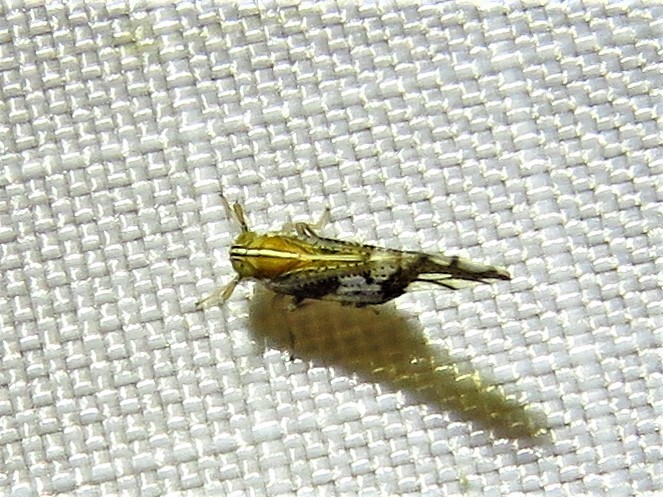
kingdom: Animalia
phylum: Arthropoda
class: Insecta
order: Hemiptera
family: Delphacidae
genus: Liburniella
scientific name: Liburniella ornata
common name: Ornate planthopper
